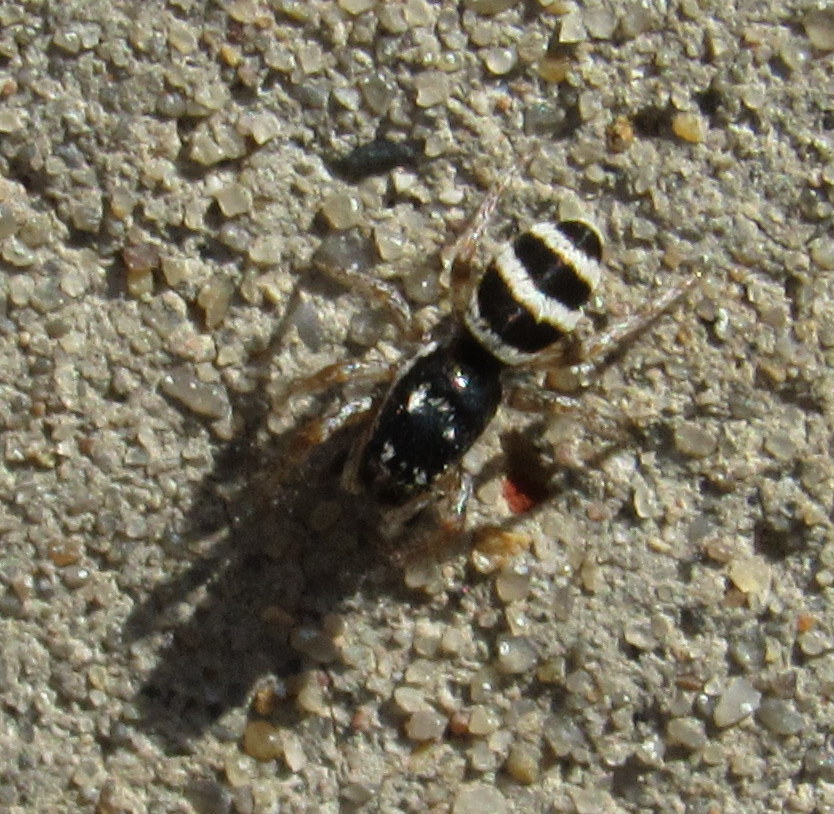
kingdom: Animalia
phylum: Arthropoda
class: Arachnida
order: Araneae
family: Salticidae
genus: Salticus
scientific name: Salticus austinensis
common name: Jumping spiders
